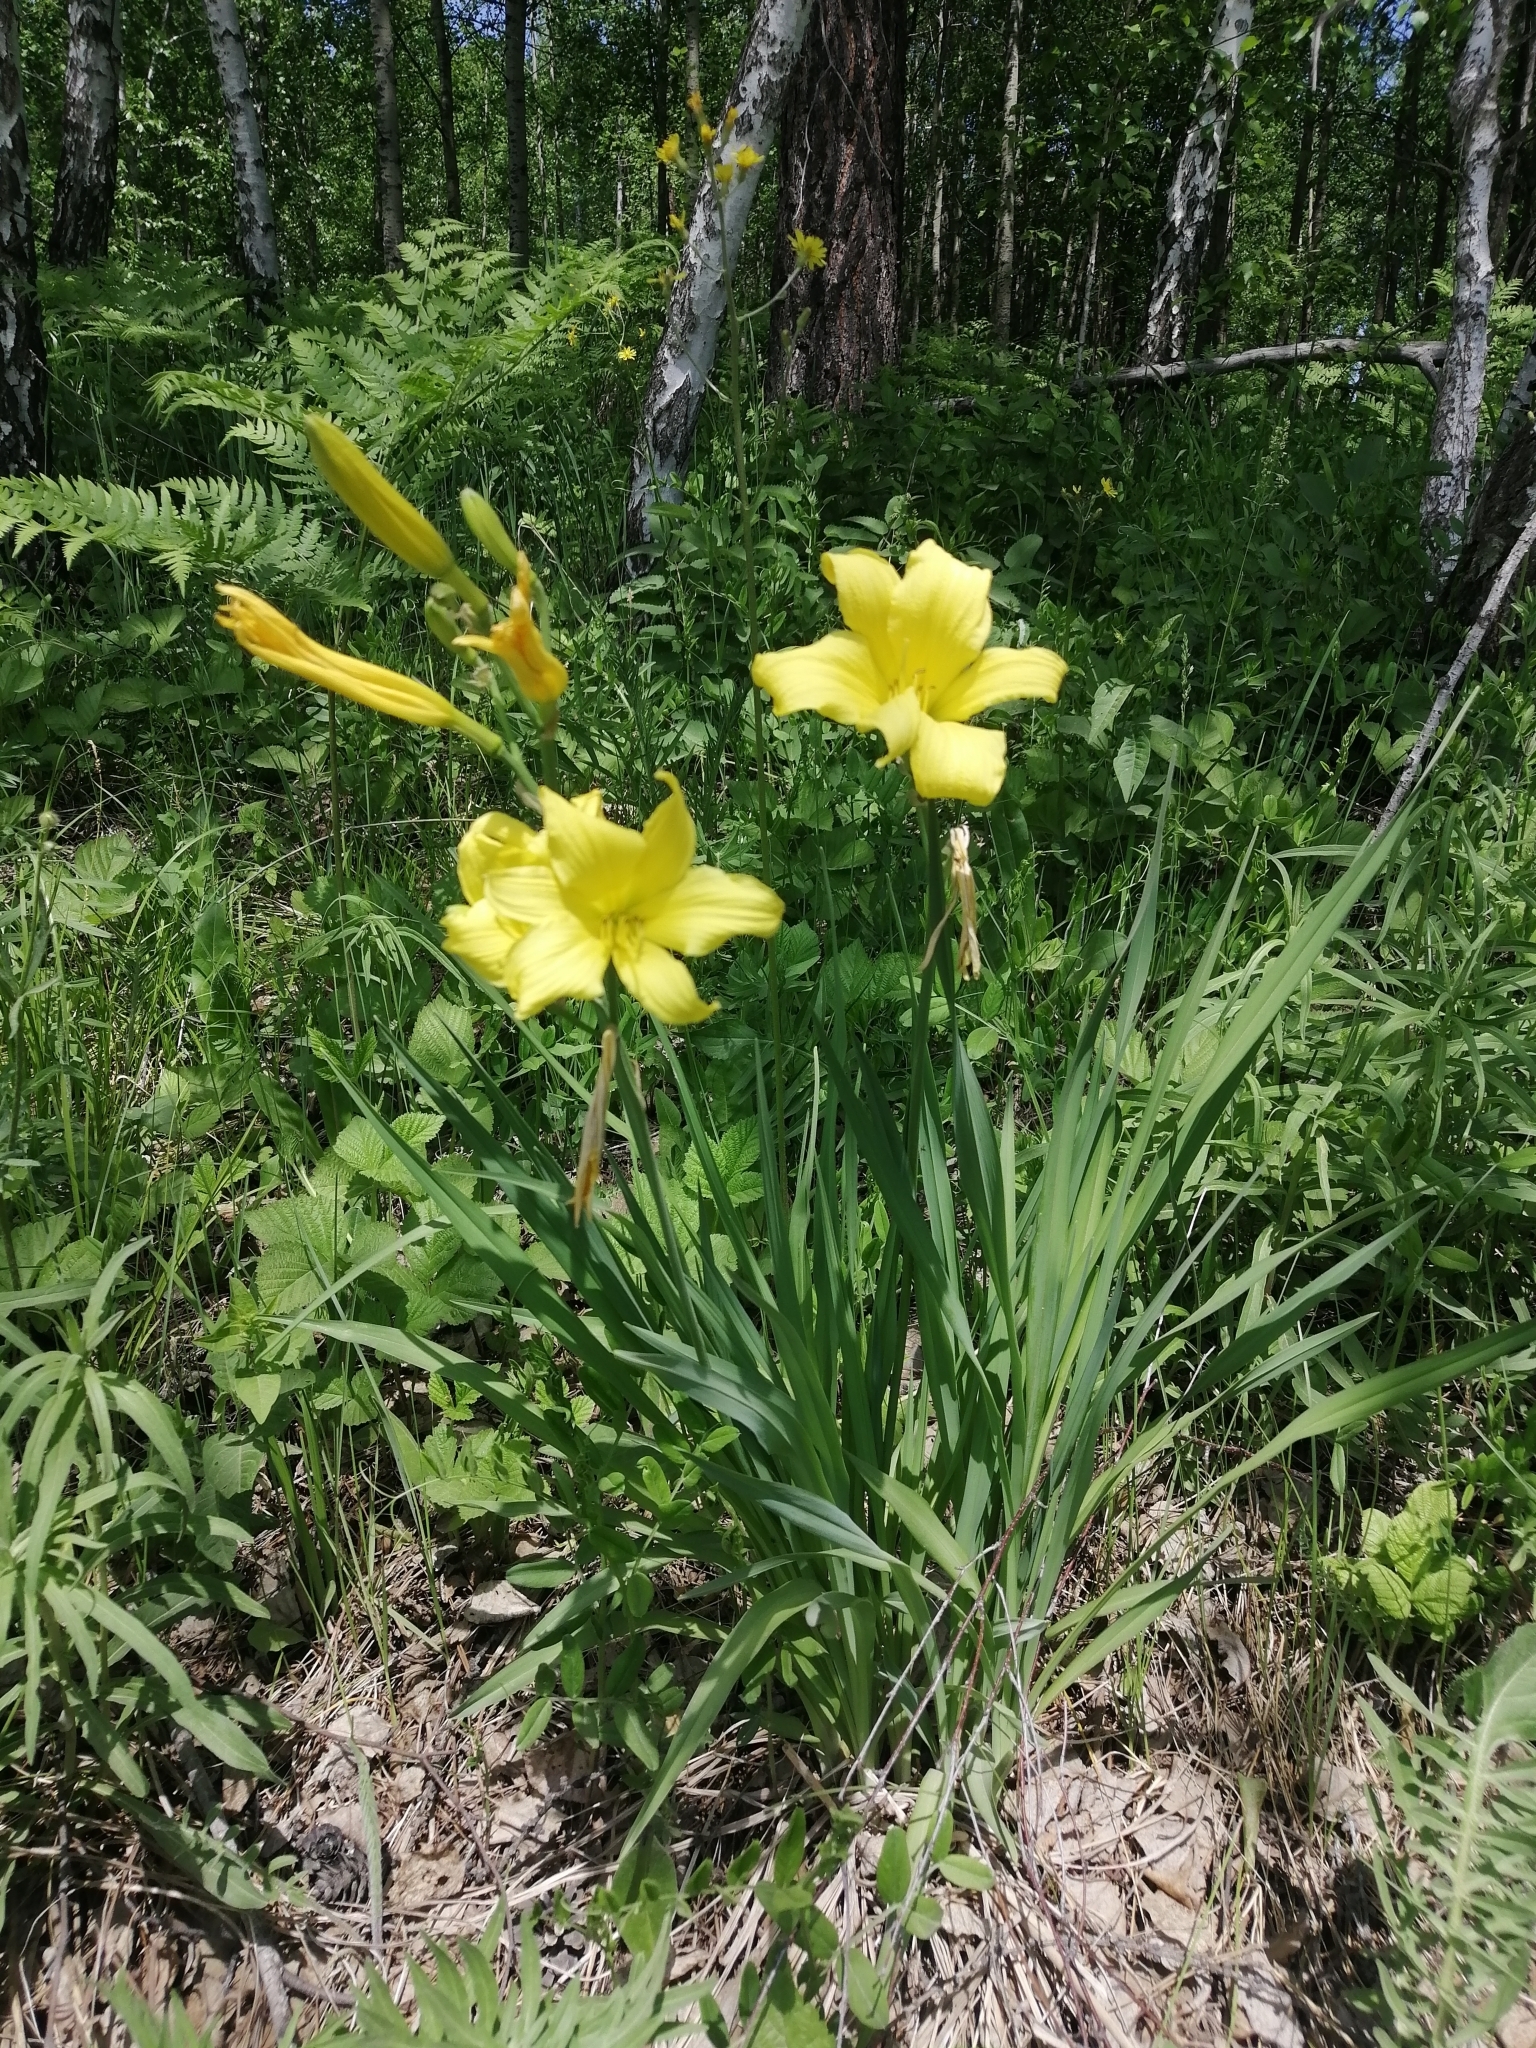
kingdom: Plantae
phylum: Tracheophyta
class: Liliopsida
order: Asparagales
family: Asphodelaceae
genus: Hemerocallis
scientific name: Hemerocallis minor
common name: Small daylily
